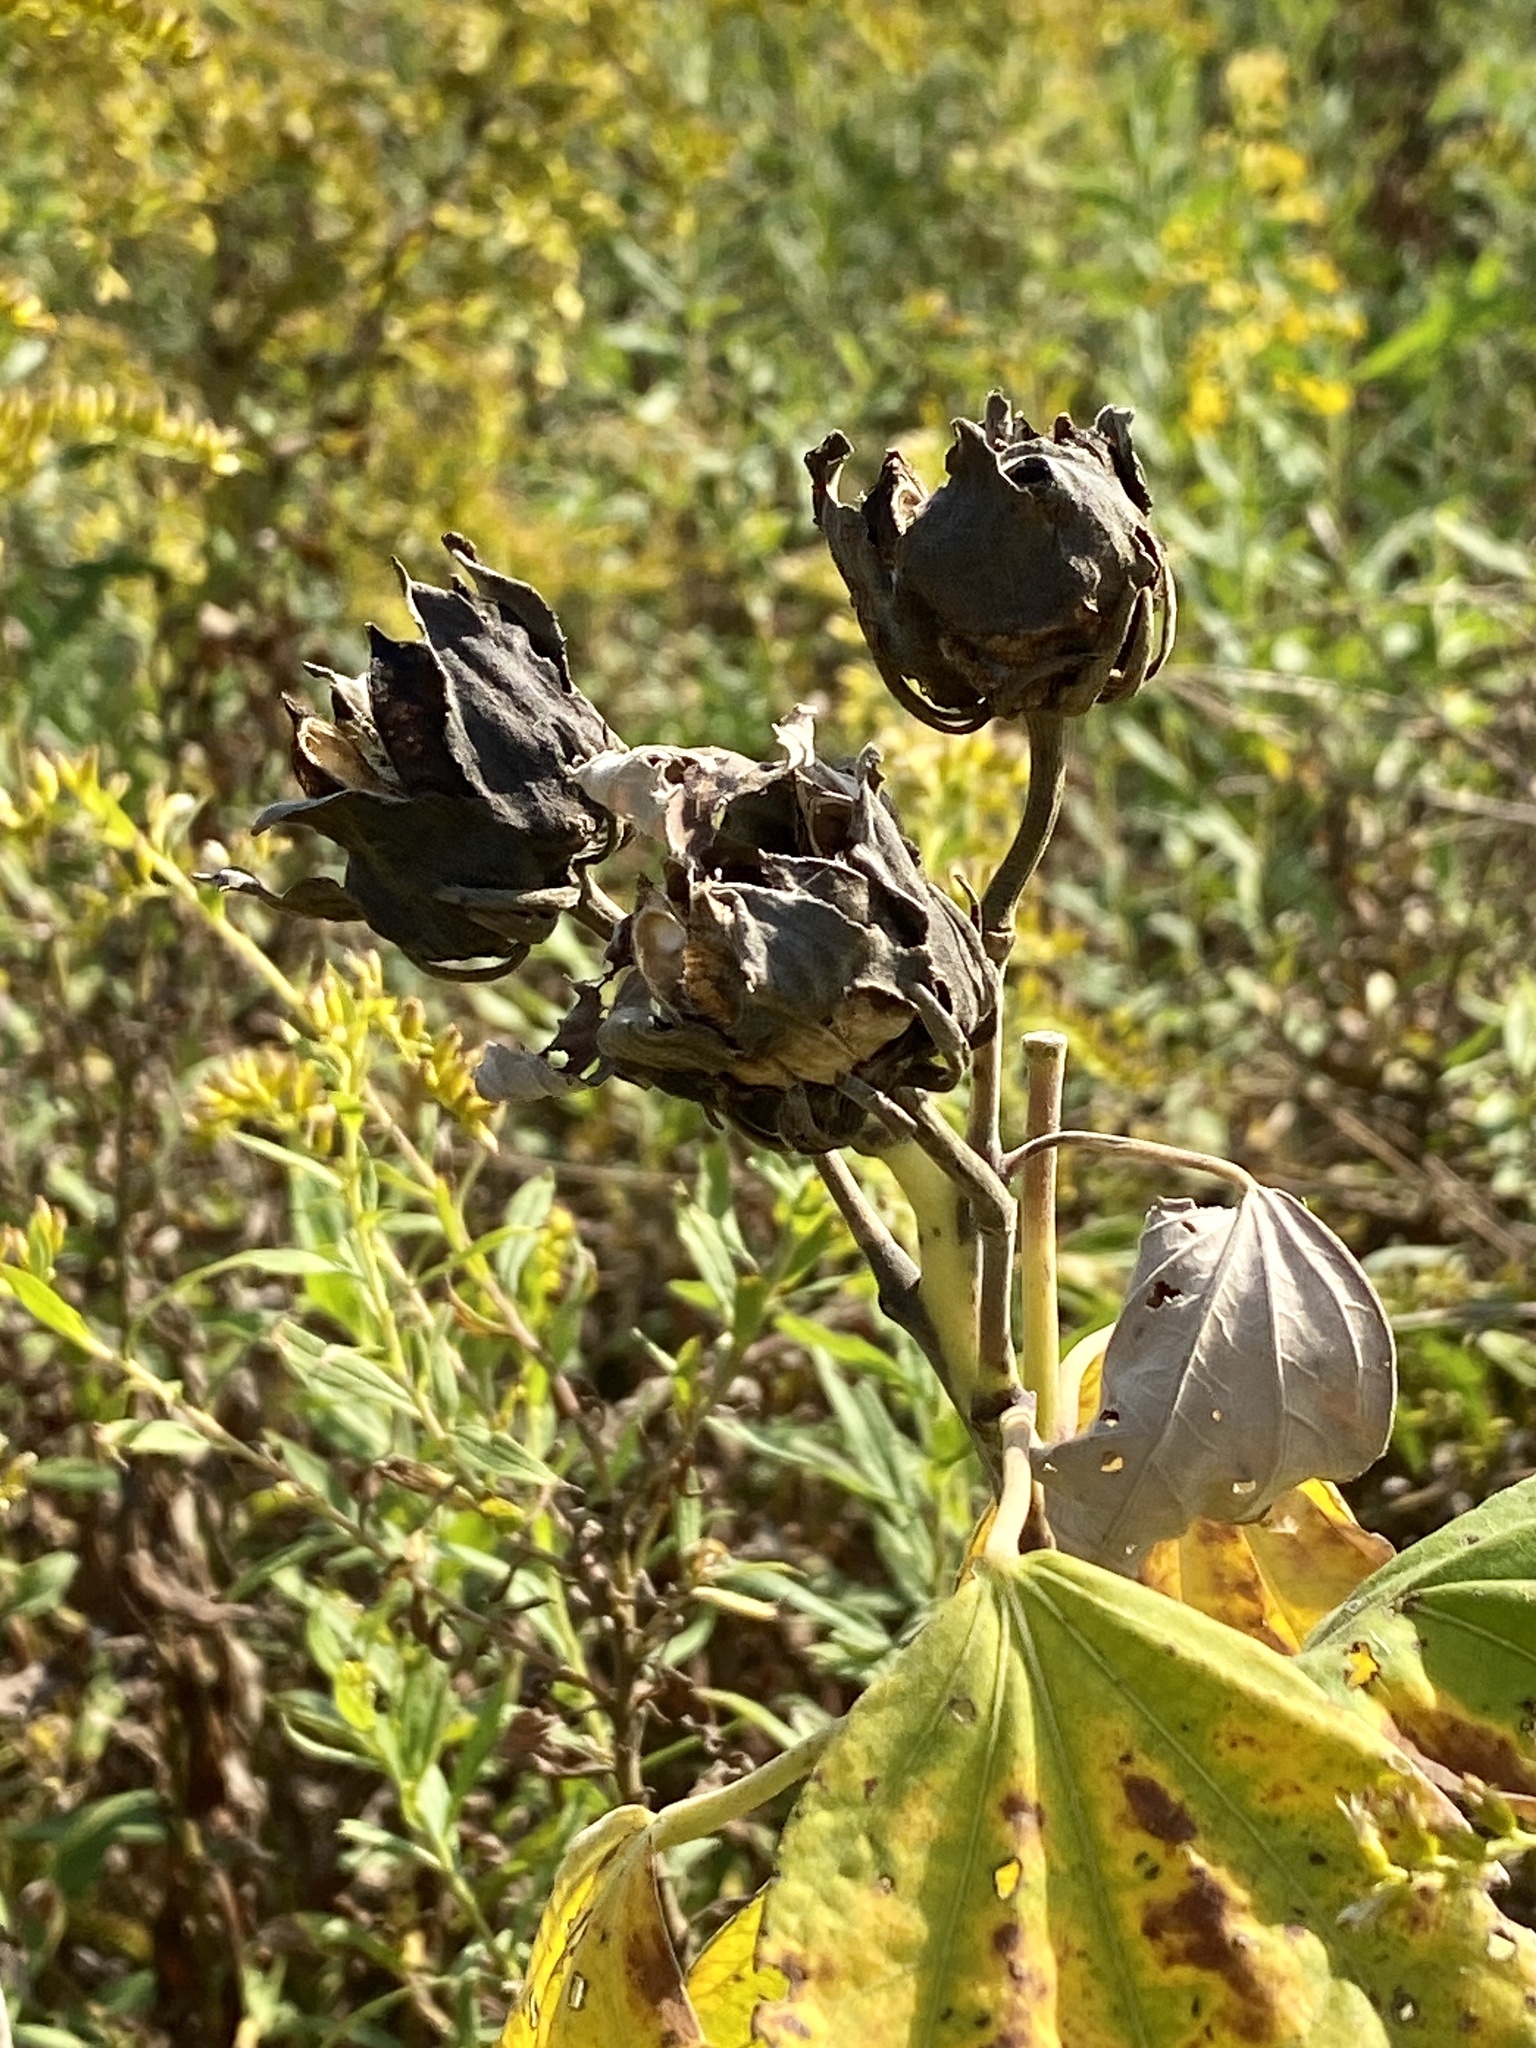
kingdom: Plantae
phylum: Tracheophyta
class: Magnoliopsida
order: Malvales
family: Malvaceae
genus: Hibiscus
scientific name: Hibiscus moscheutos
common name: Common rose-mallow
